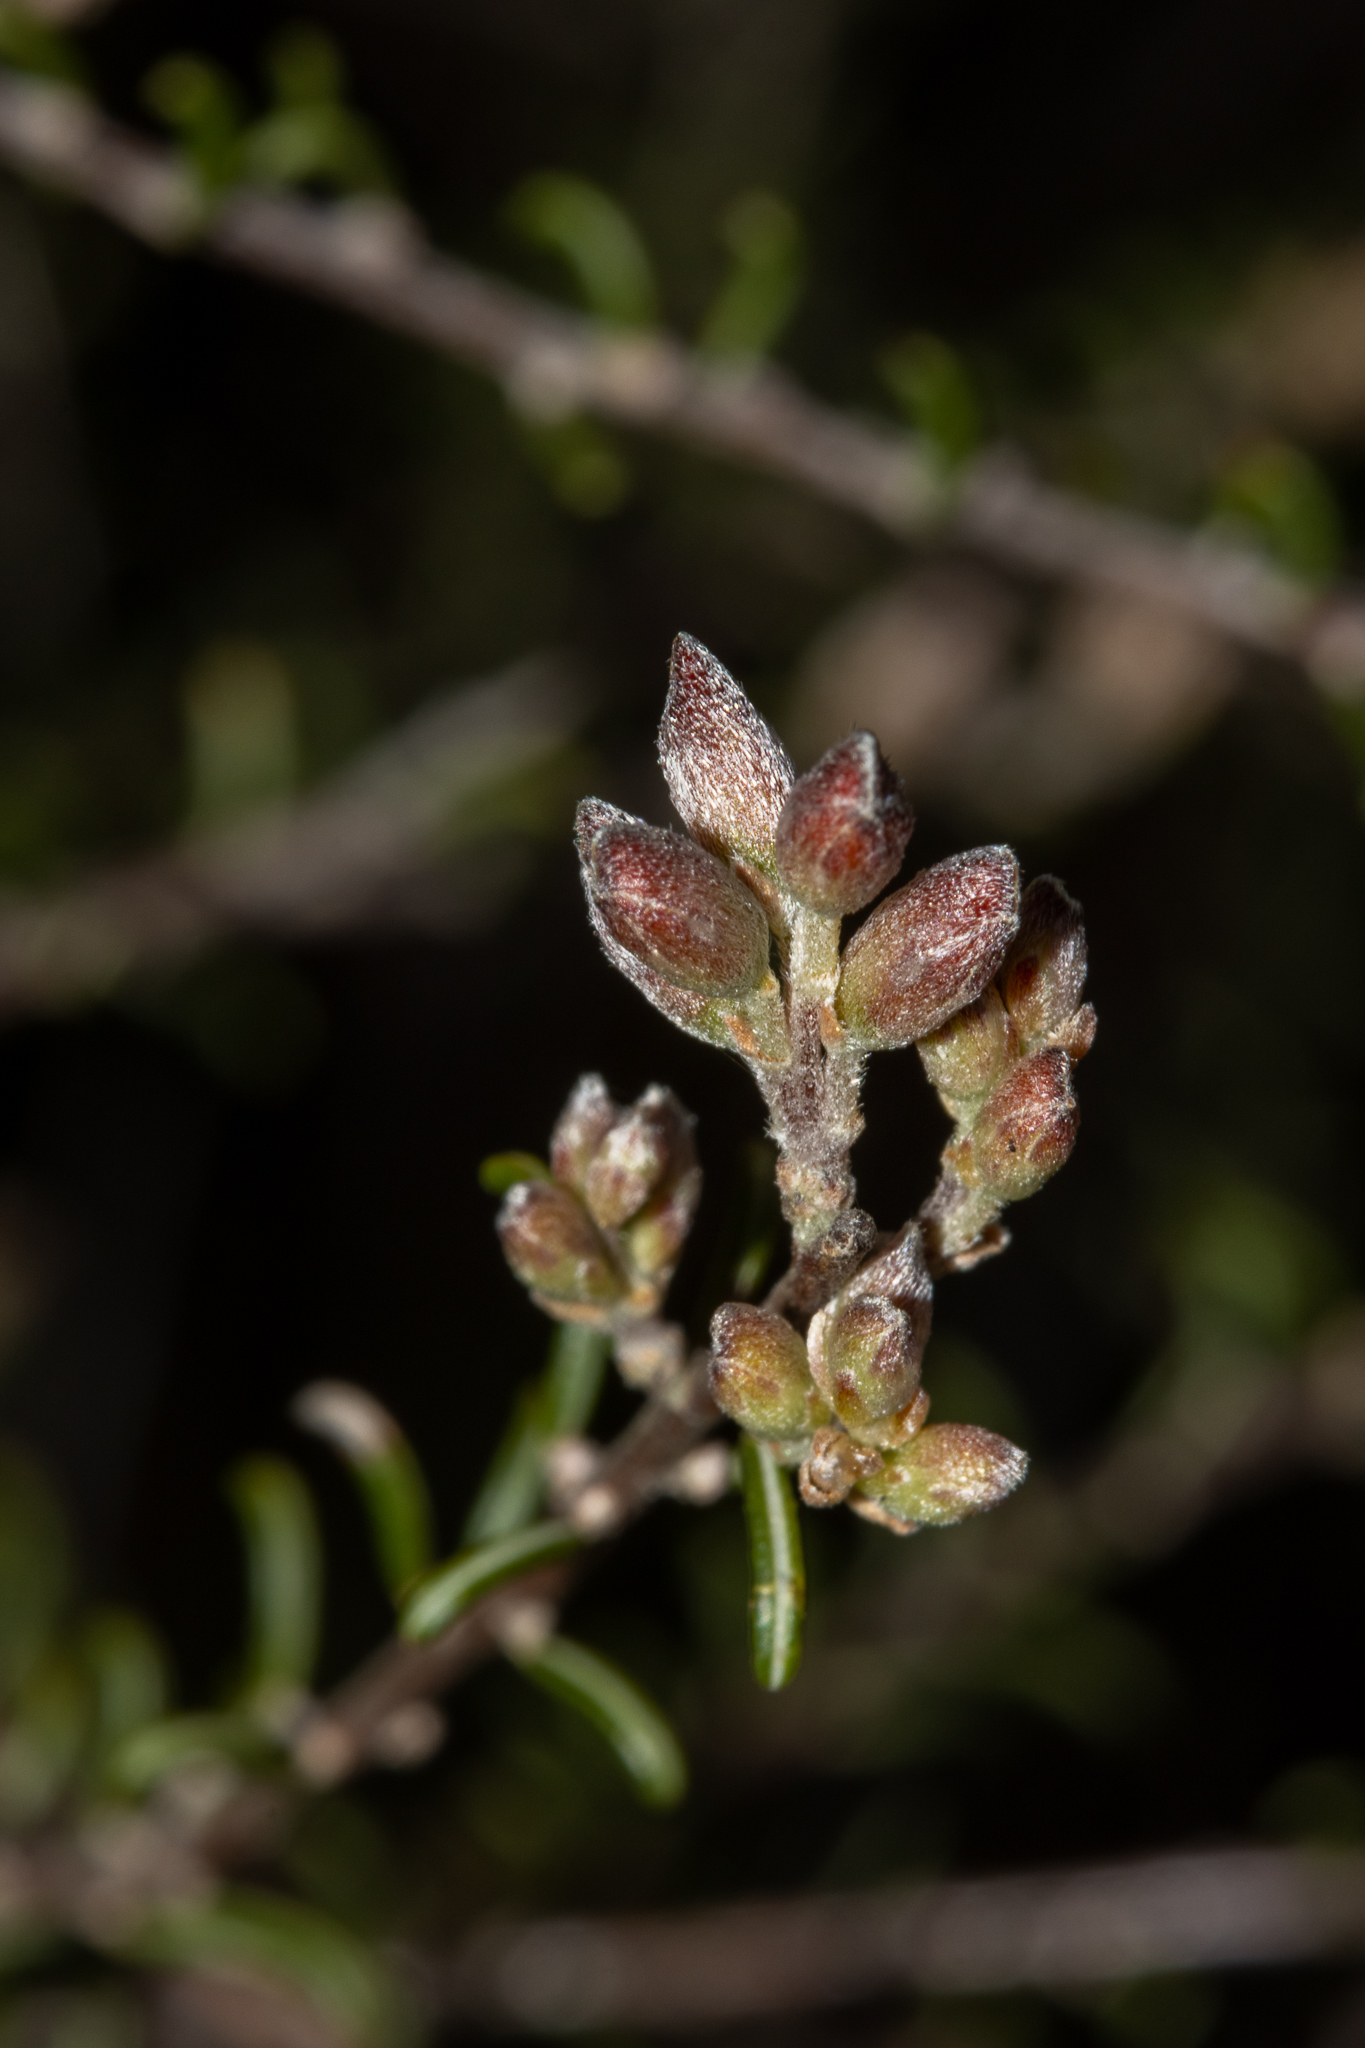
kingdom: Plantae
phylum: Tracheophyta
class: Magnoliopsida
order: Fabales
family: Fabaceae
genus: Dillwynia
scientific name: Dillwynia uncinata
